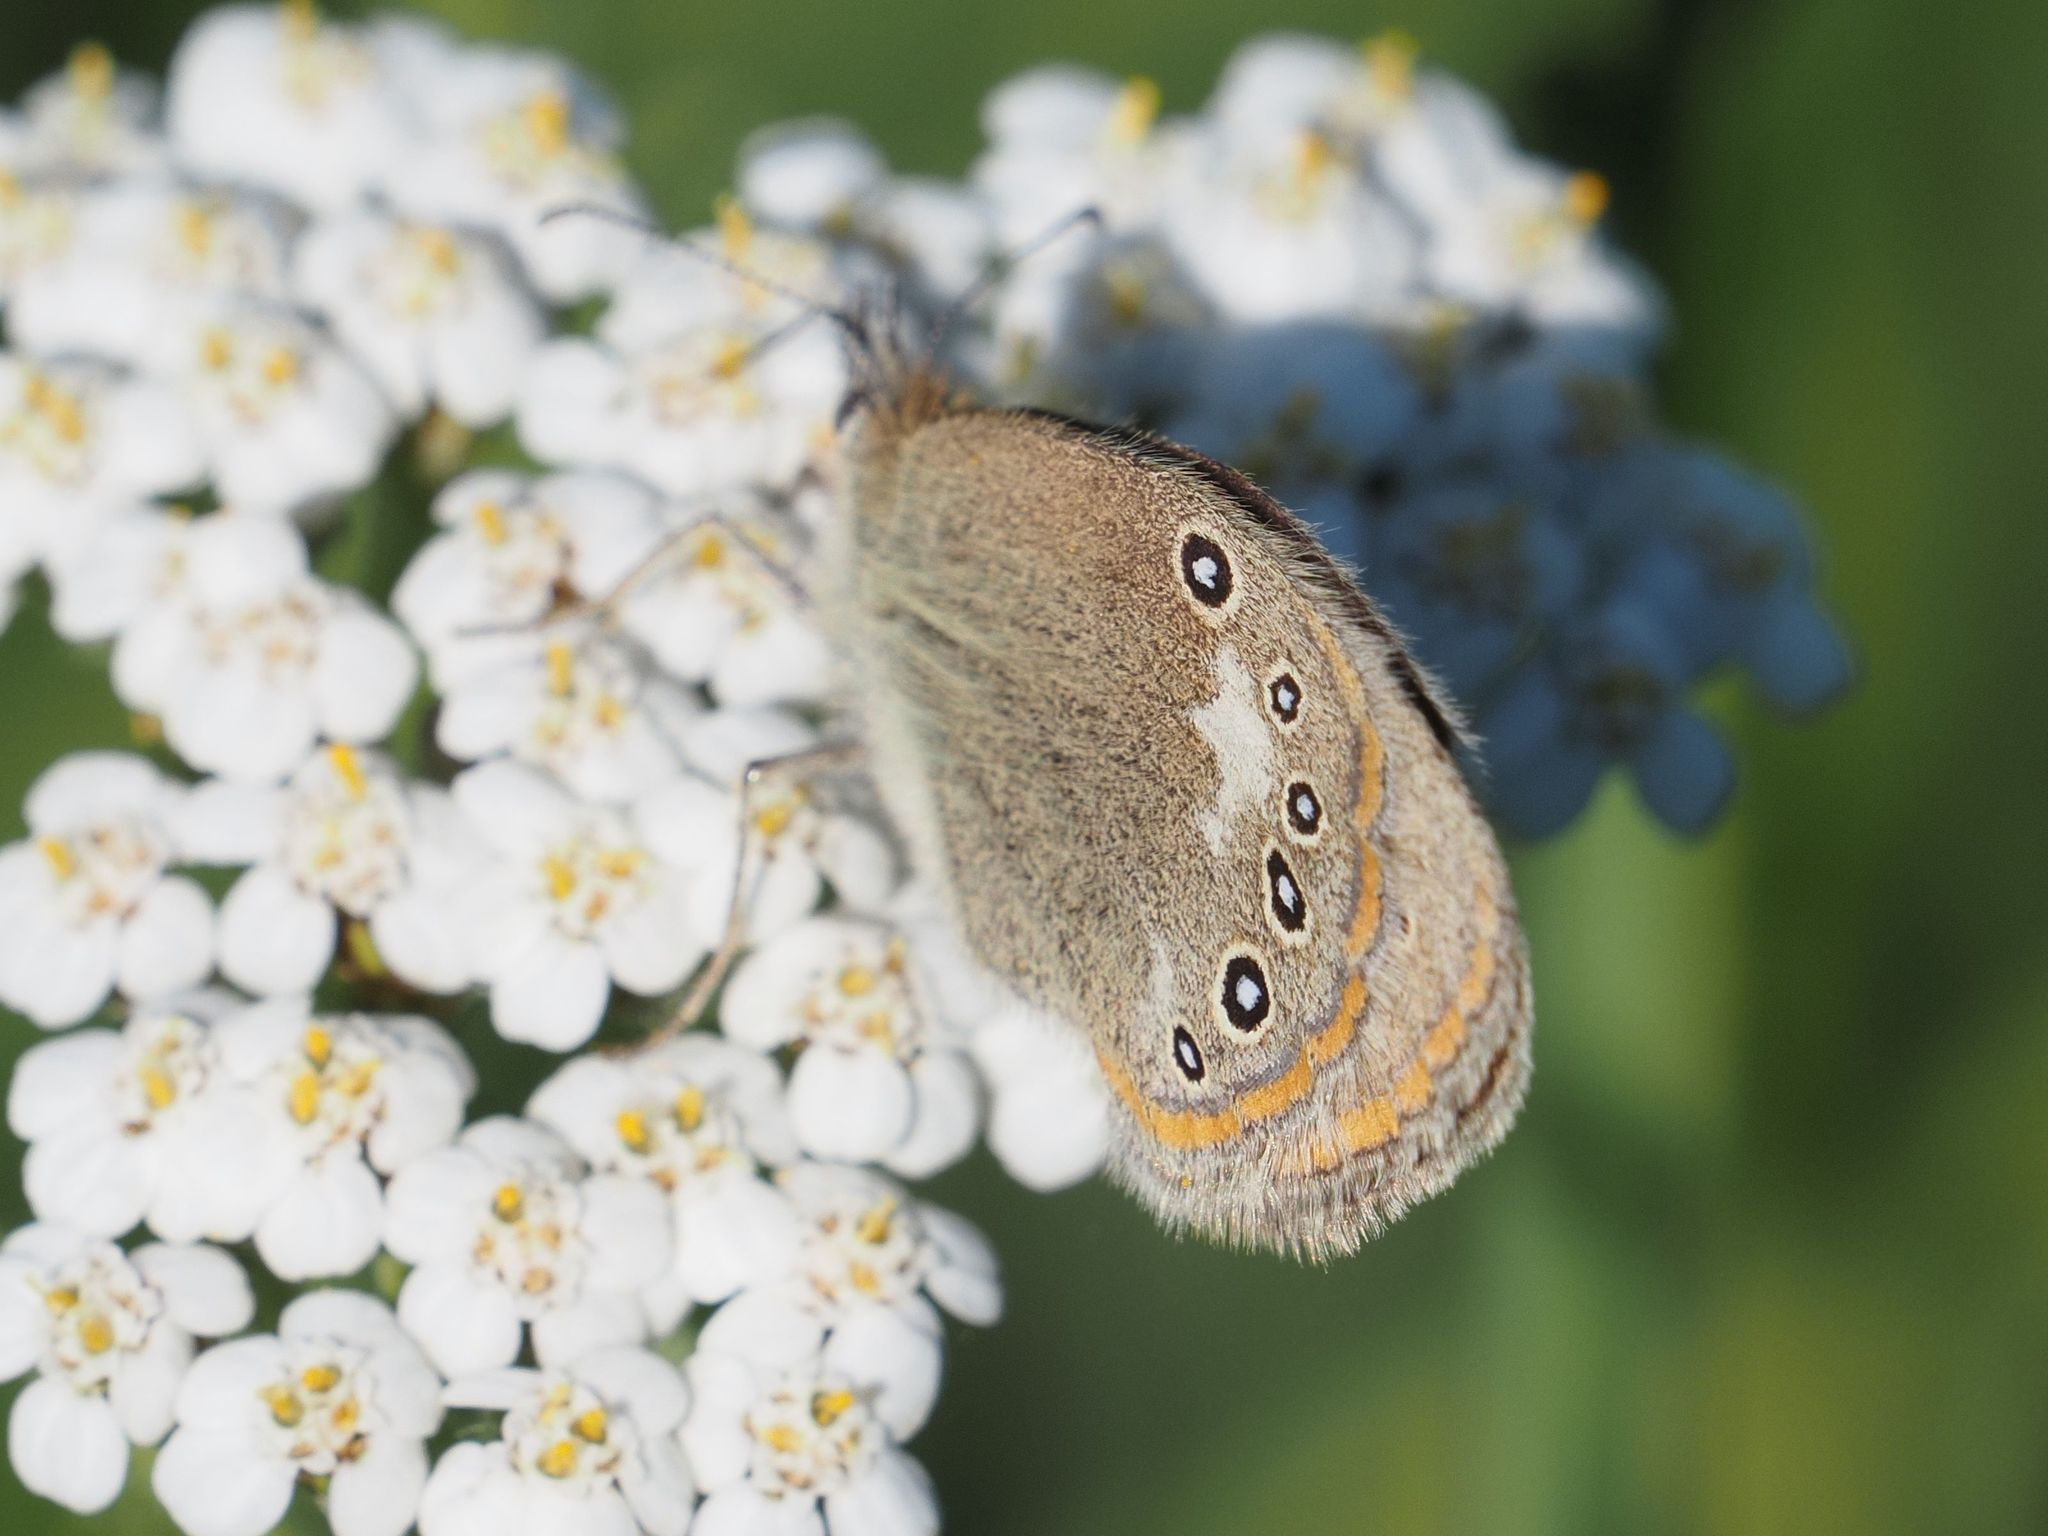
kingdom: Animalia
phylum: Arthropoda
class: Insecta
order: Lepidoptera
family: Nymphalidae
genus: Coenonympha
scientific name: Coenonympha iphis
